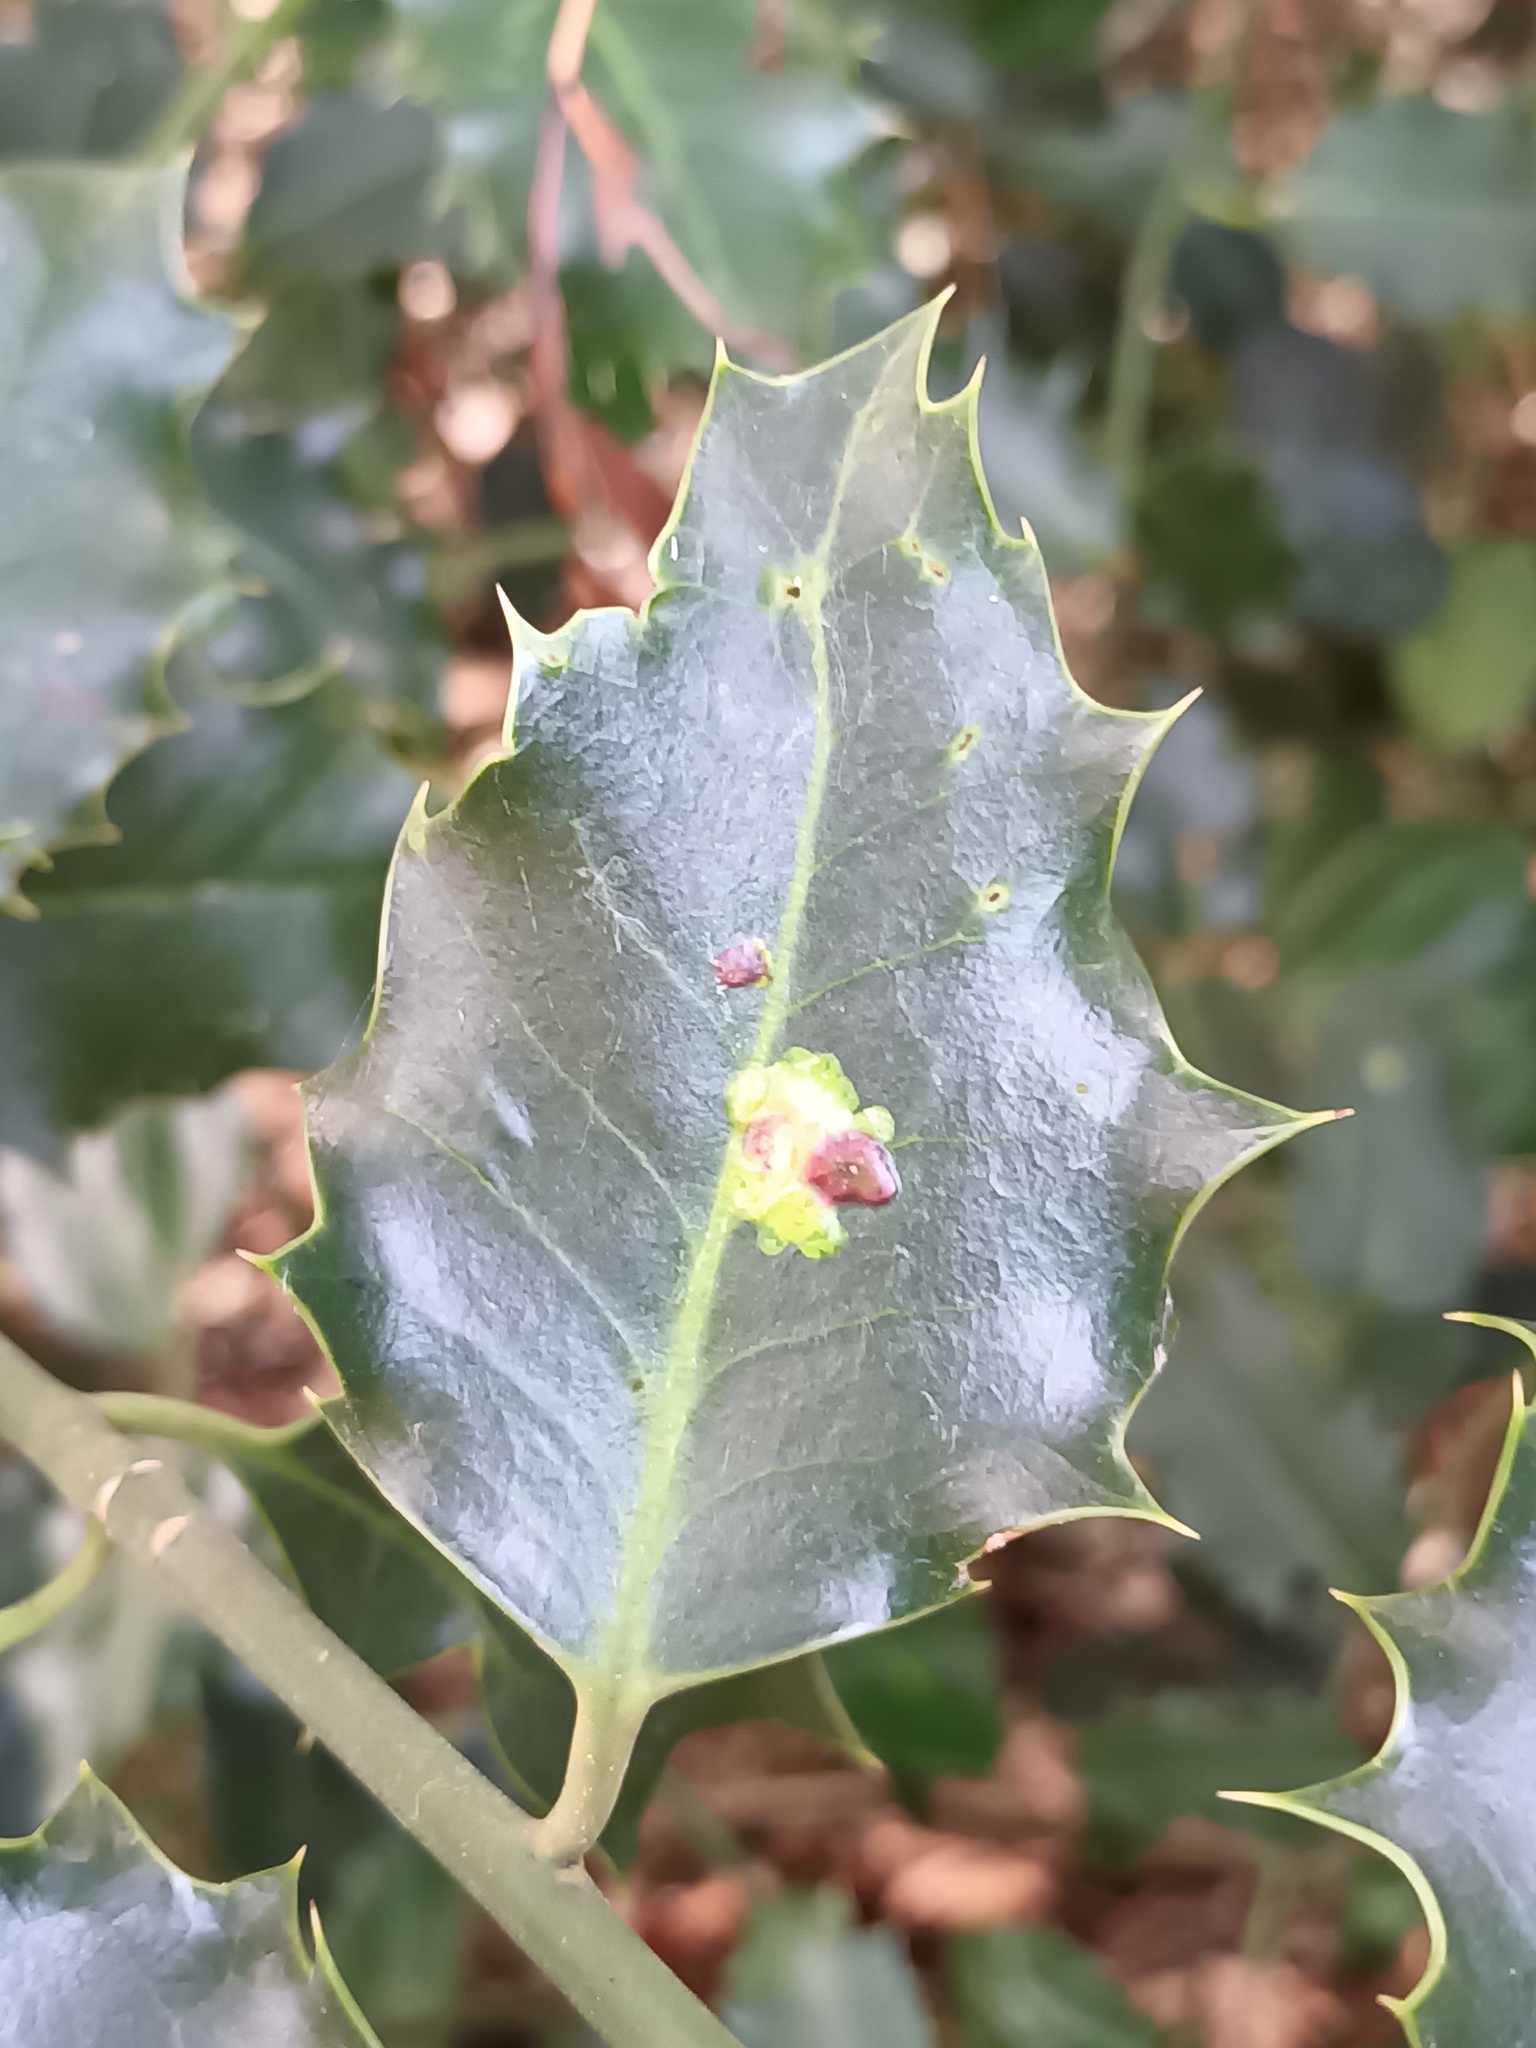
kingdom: Animalia
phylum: Arthropoda
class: Insecta
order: Diptera
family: Agromyzidae
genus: Phytomyza
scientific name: Phytomyza ilicis
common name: Holly leafminer
